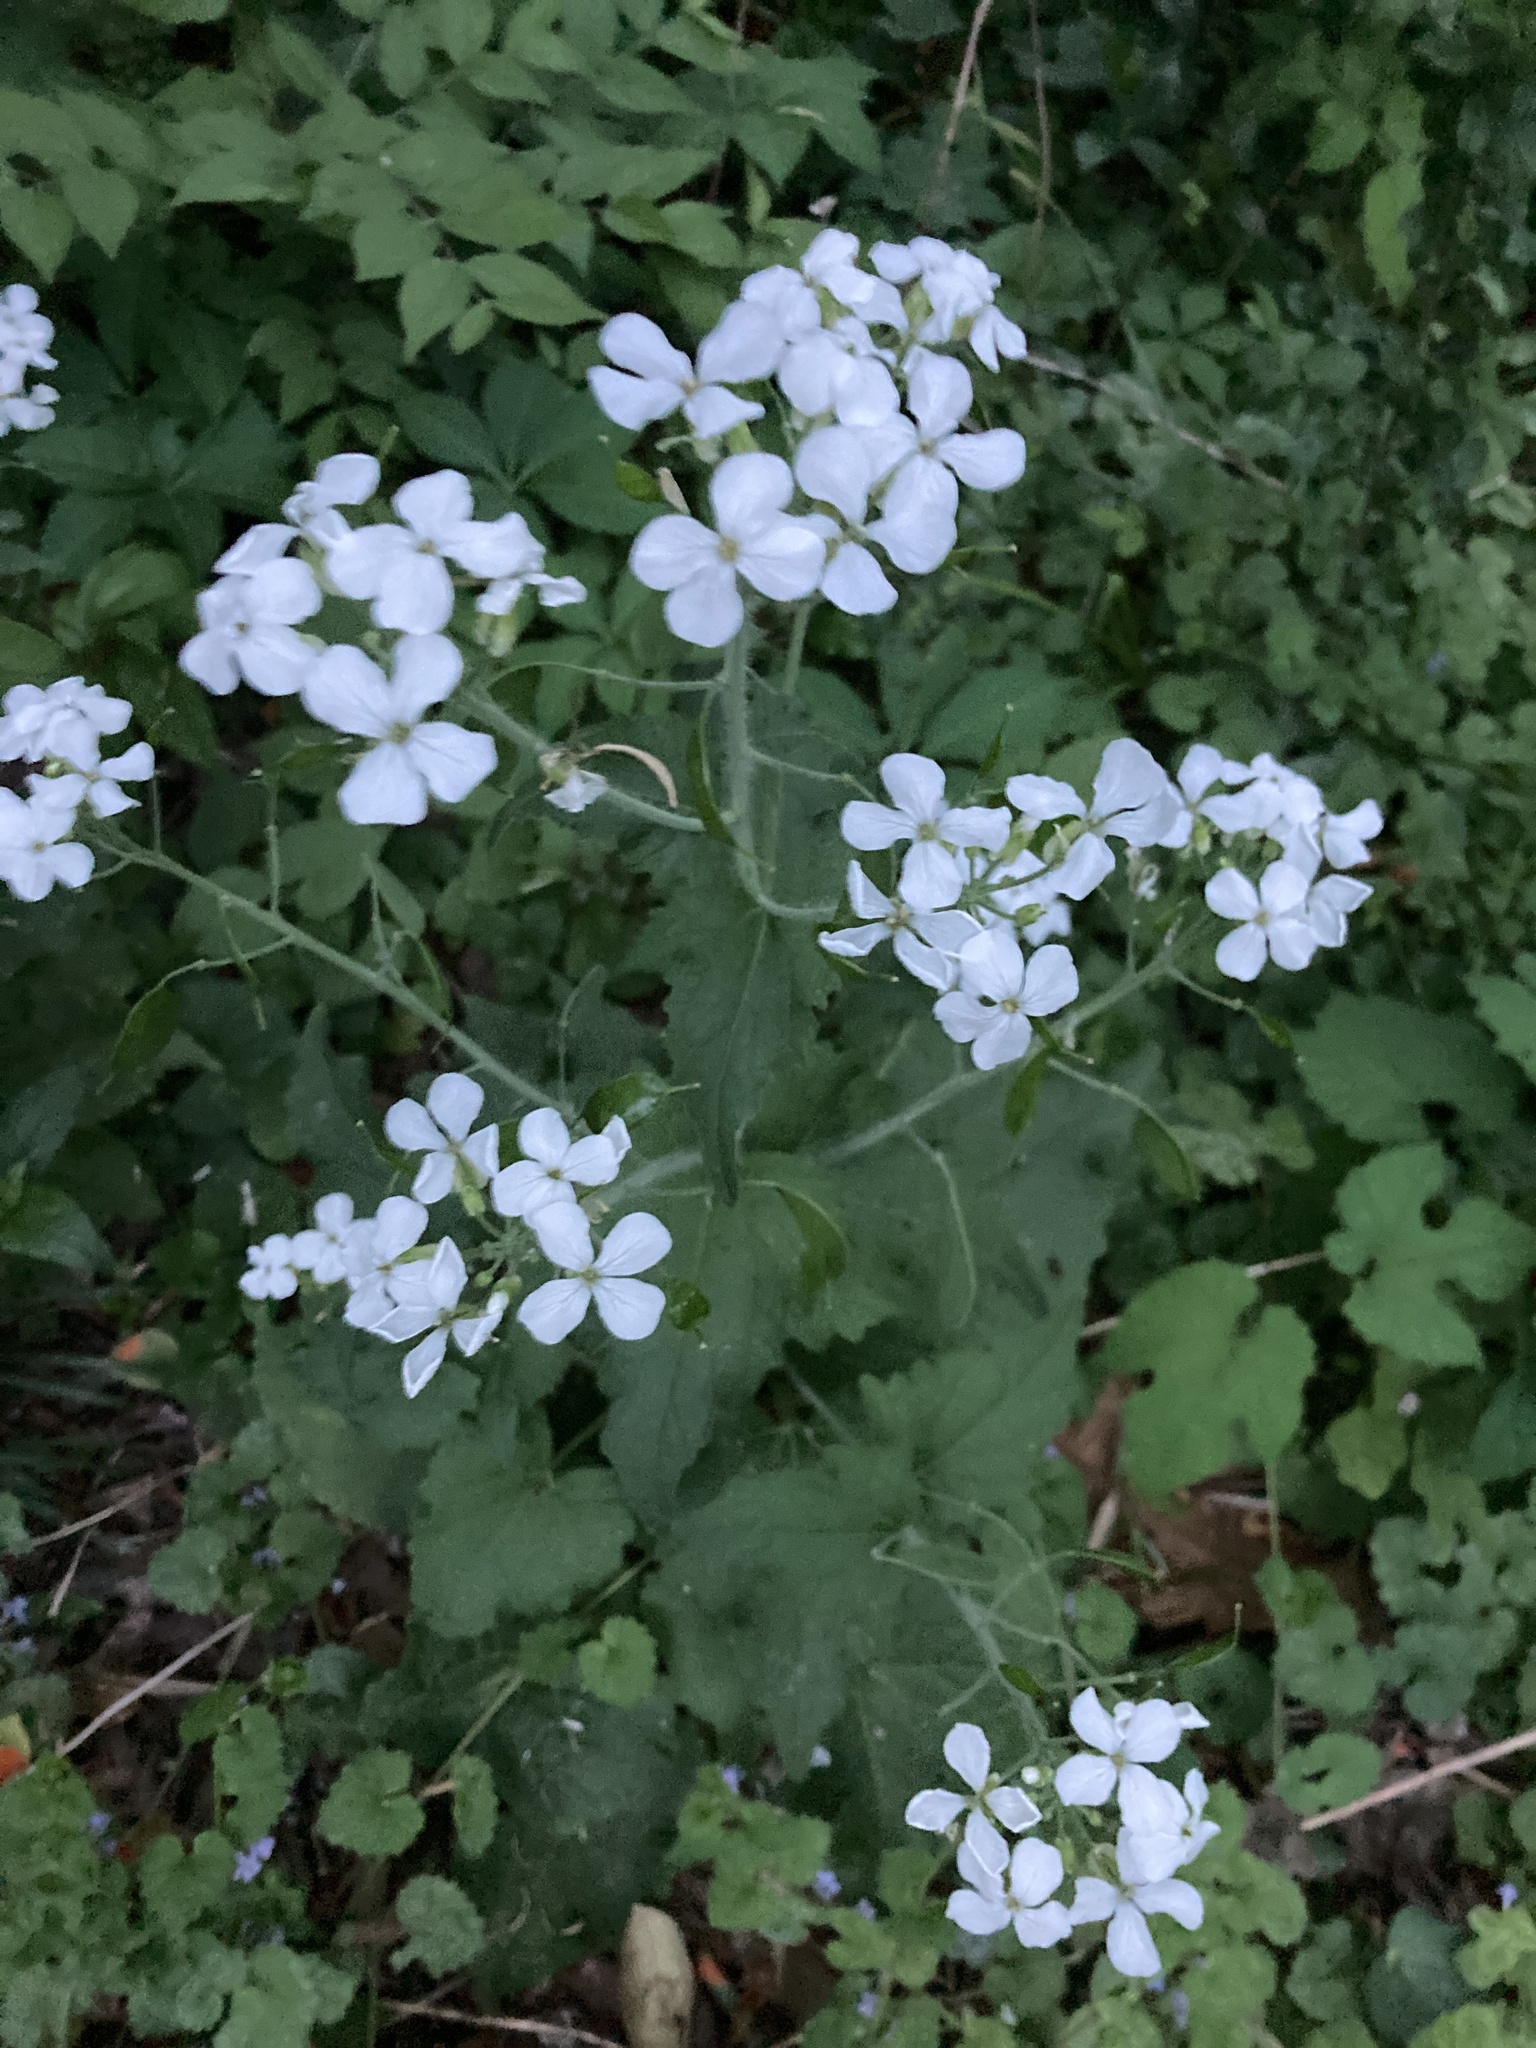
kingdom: Plantae
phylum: Tracheophyta
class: Magnoliopsida
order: Brassicales
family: Brassicaceae
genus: Lunaria
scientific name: Lunaria annua
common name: Honesty
